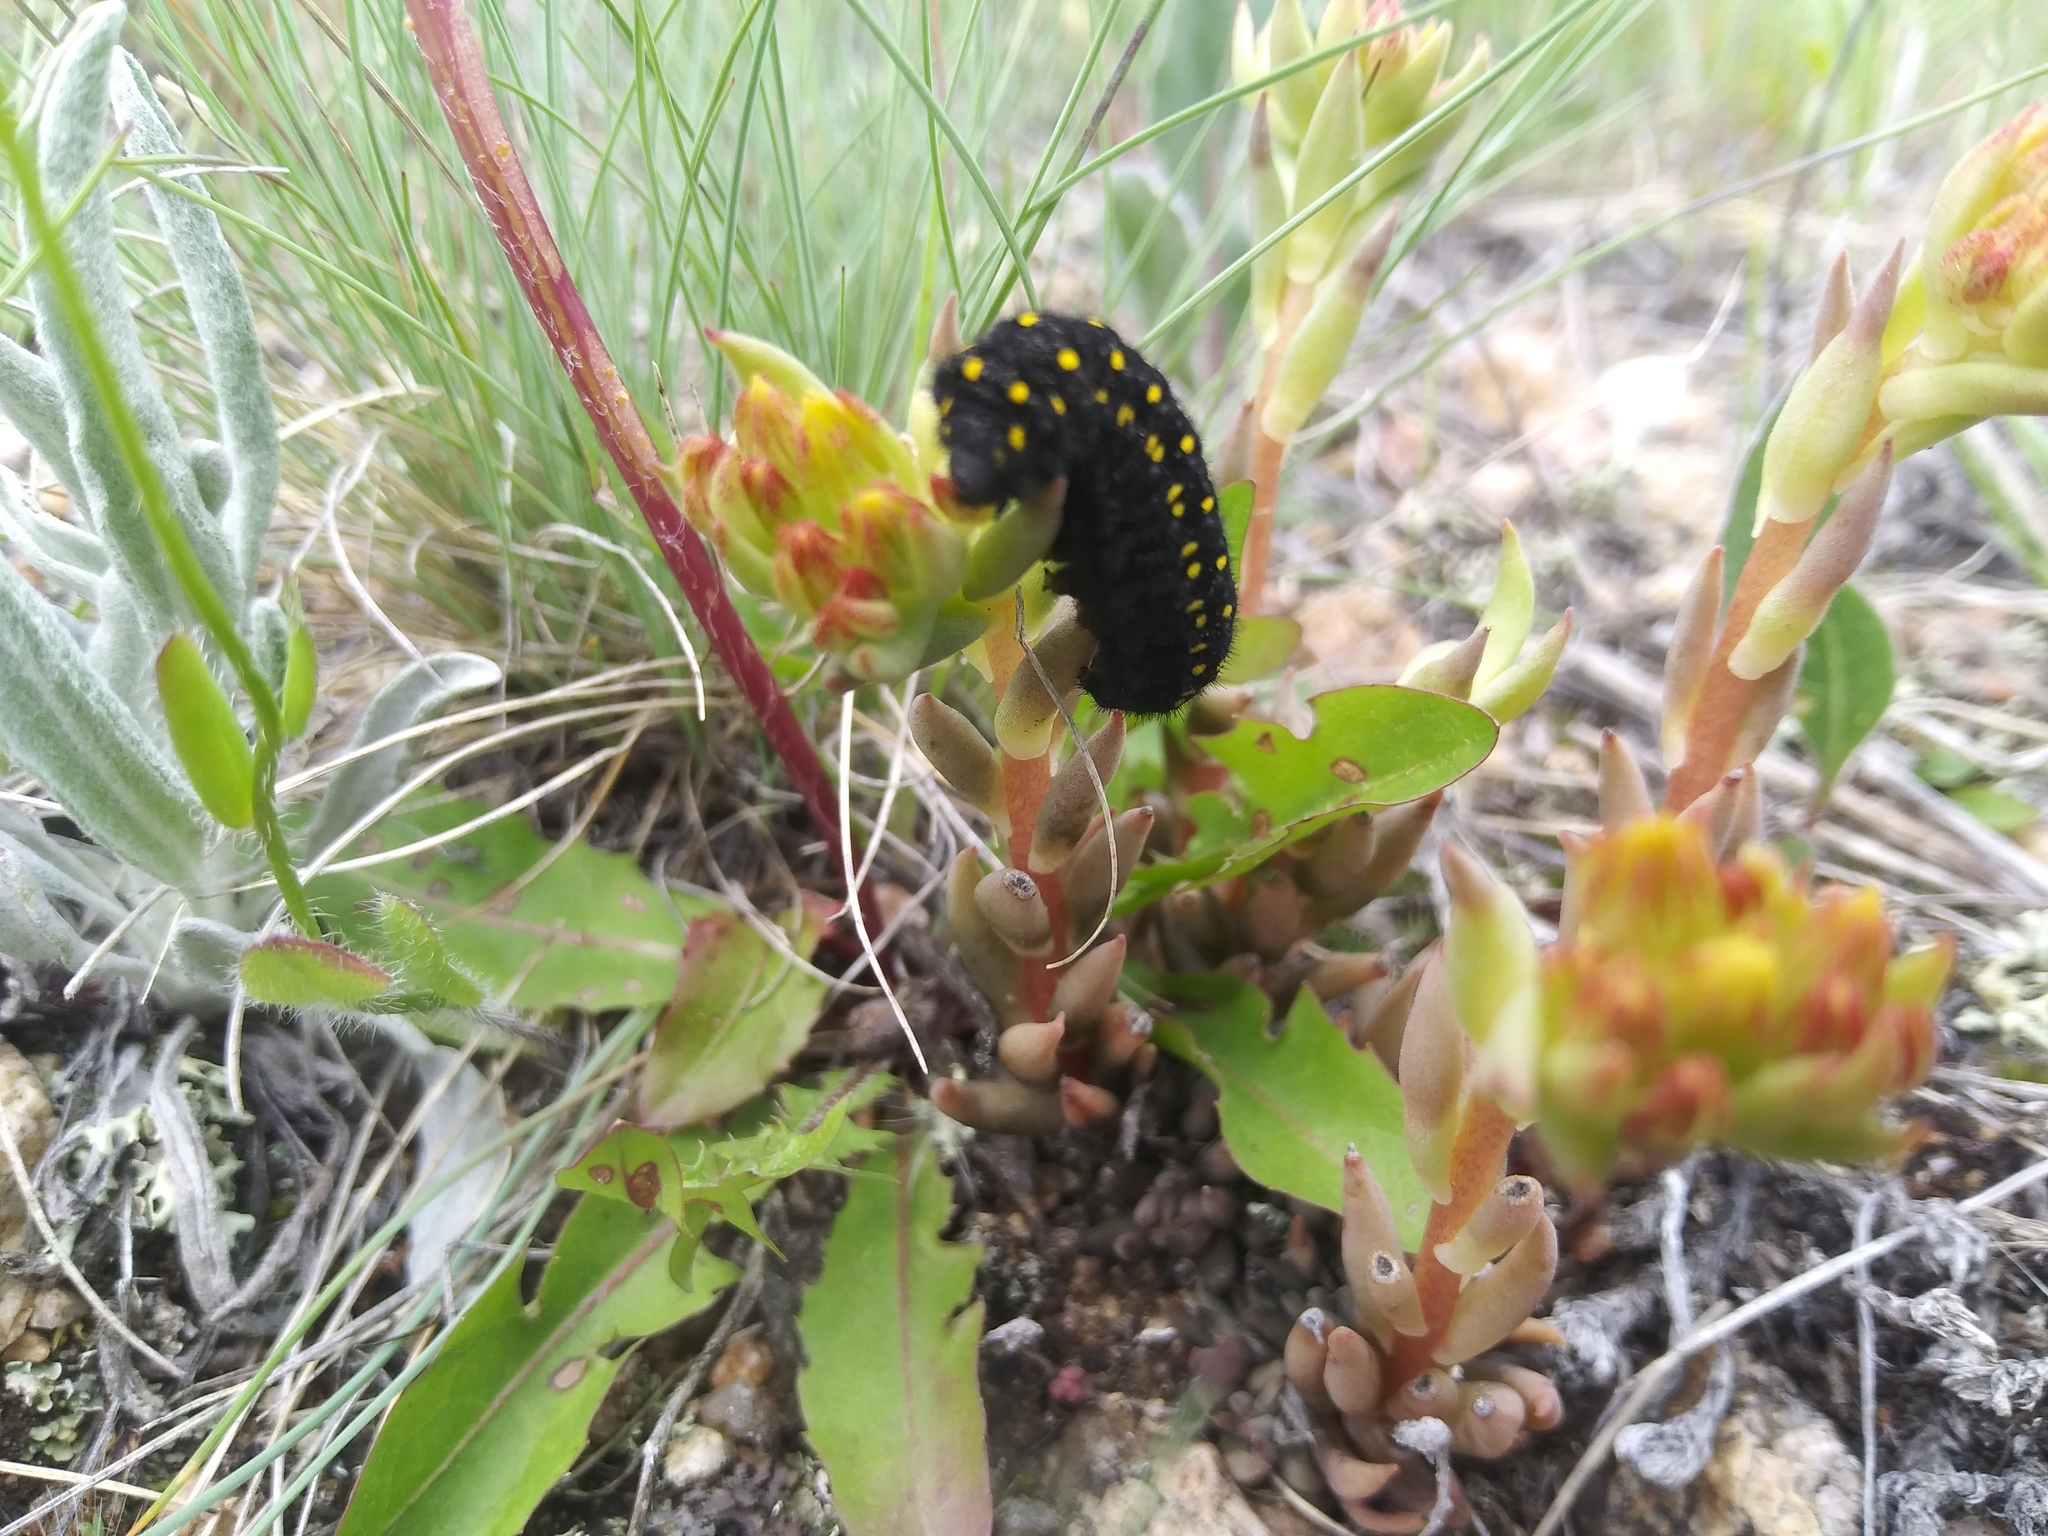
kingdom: Animalia
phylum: Arthropoda
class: Insecta
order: Lepidoptera
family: Papilionidae
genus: Parnassius
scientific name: Parnassius smintheus
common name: Mountain parnassian
